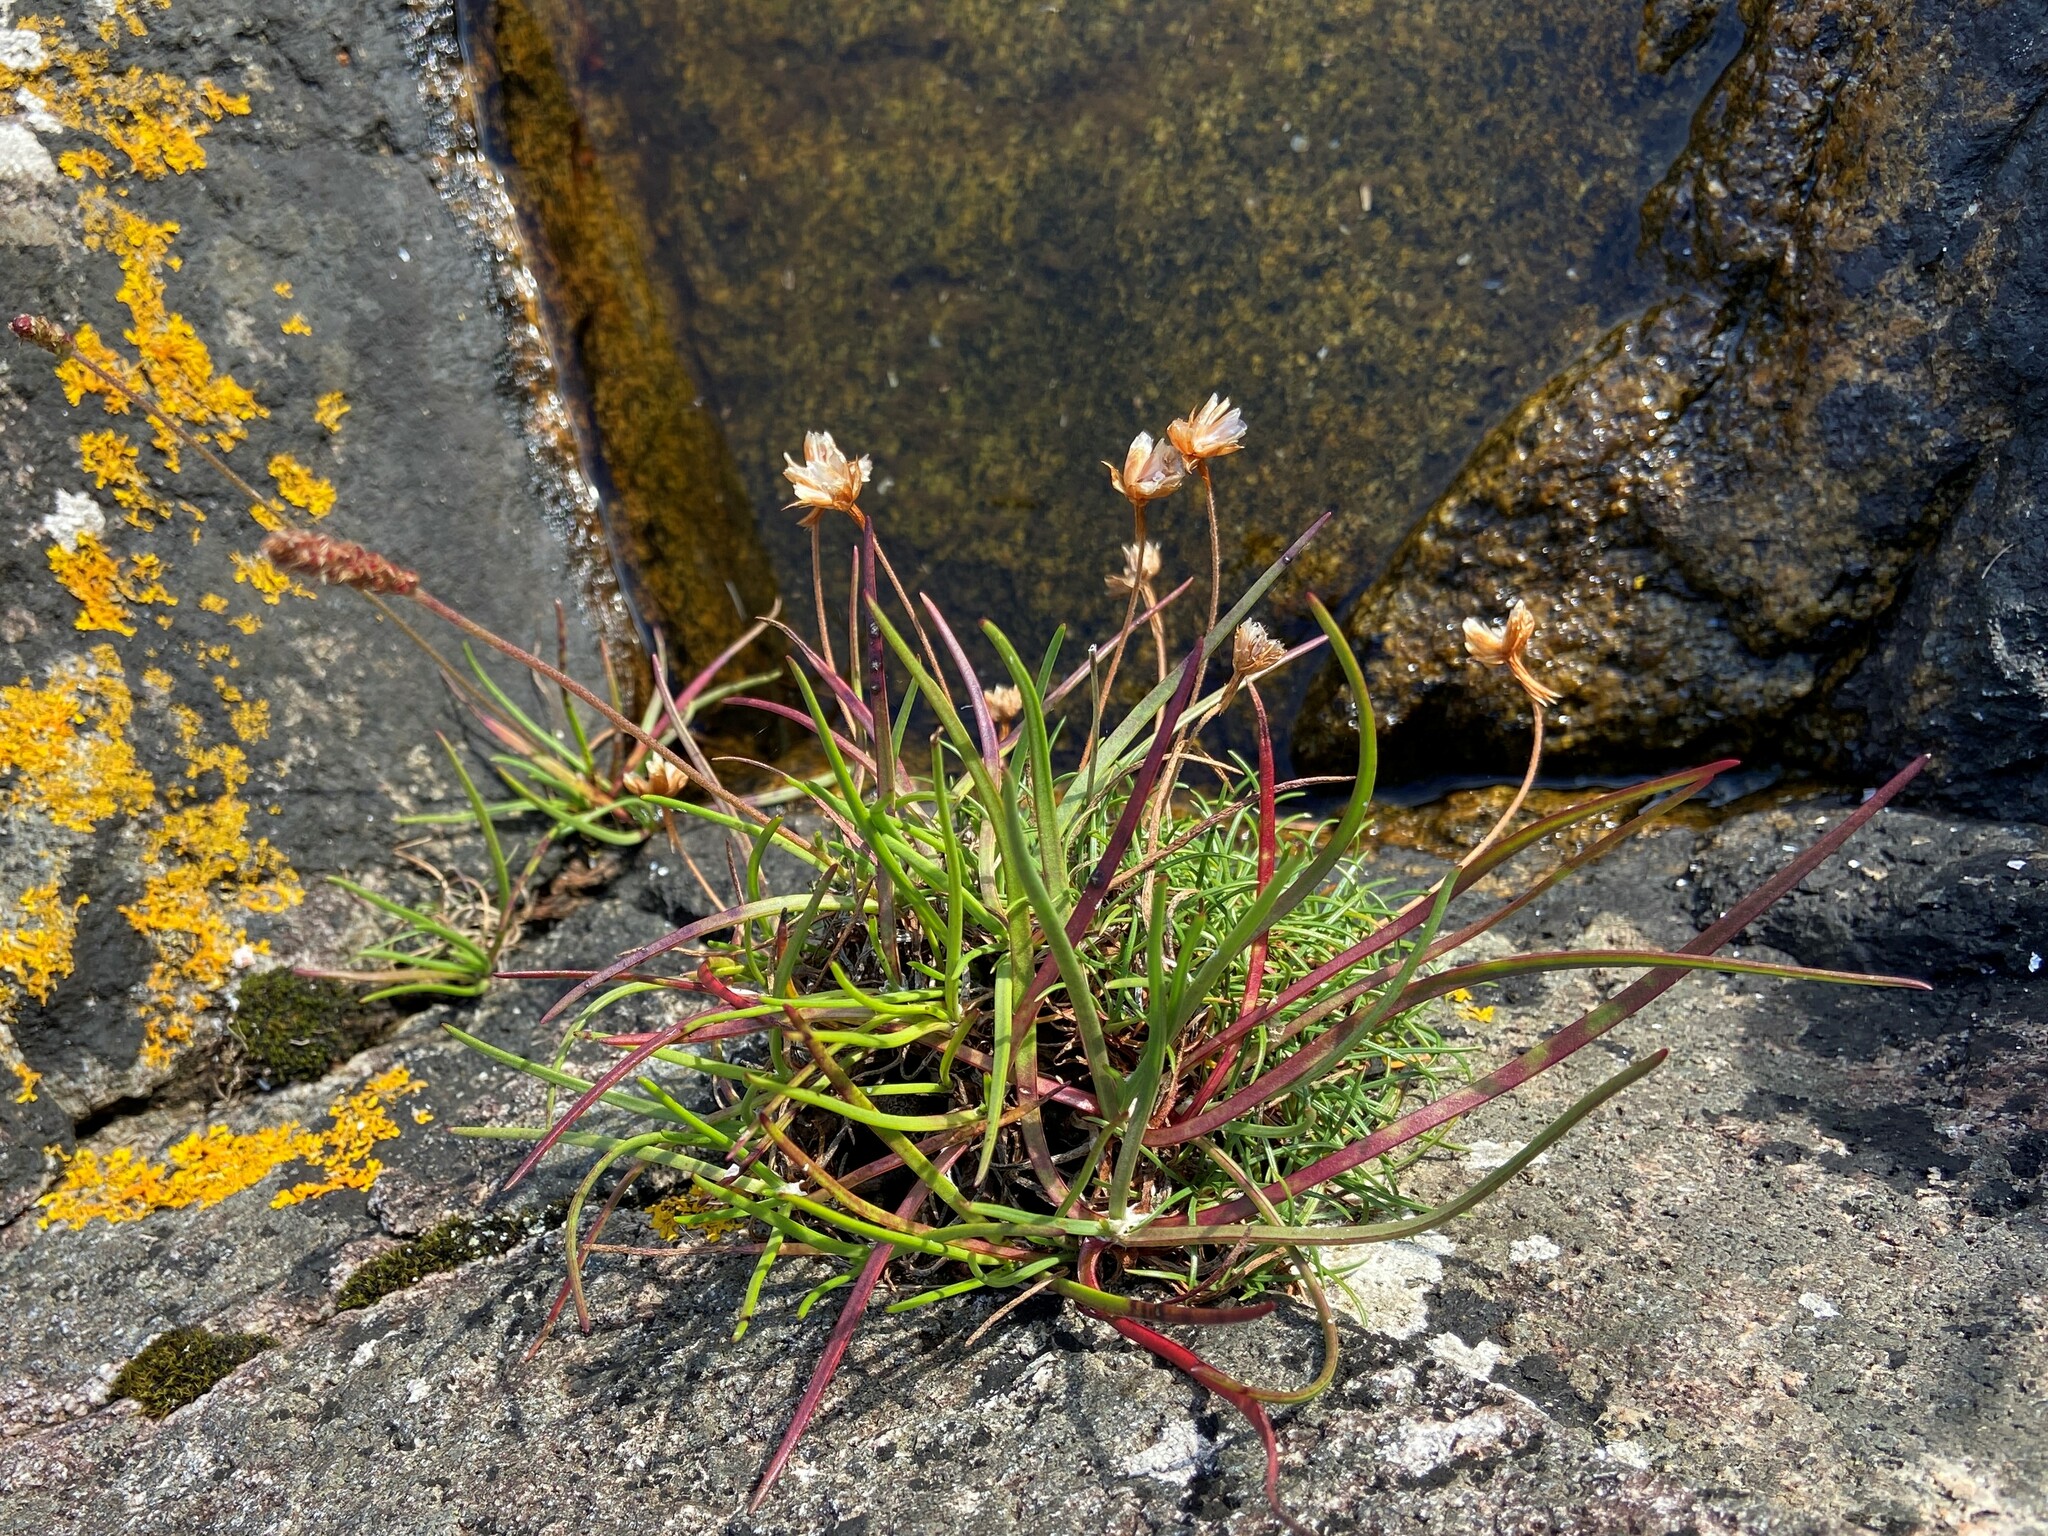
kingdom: Plantae
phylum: Tracheophyta
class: Magnoliopsida
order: Caryophyllales
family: Plumbaginaceae
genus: Armeria
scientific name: Armeria maritima
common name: Thrift
